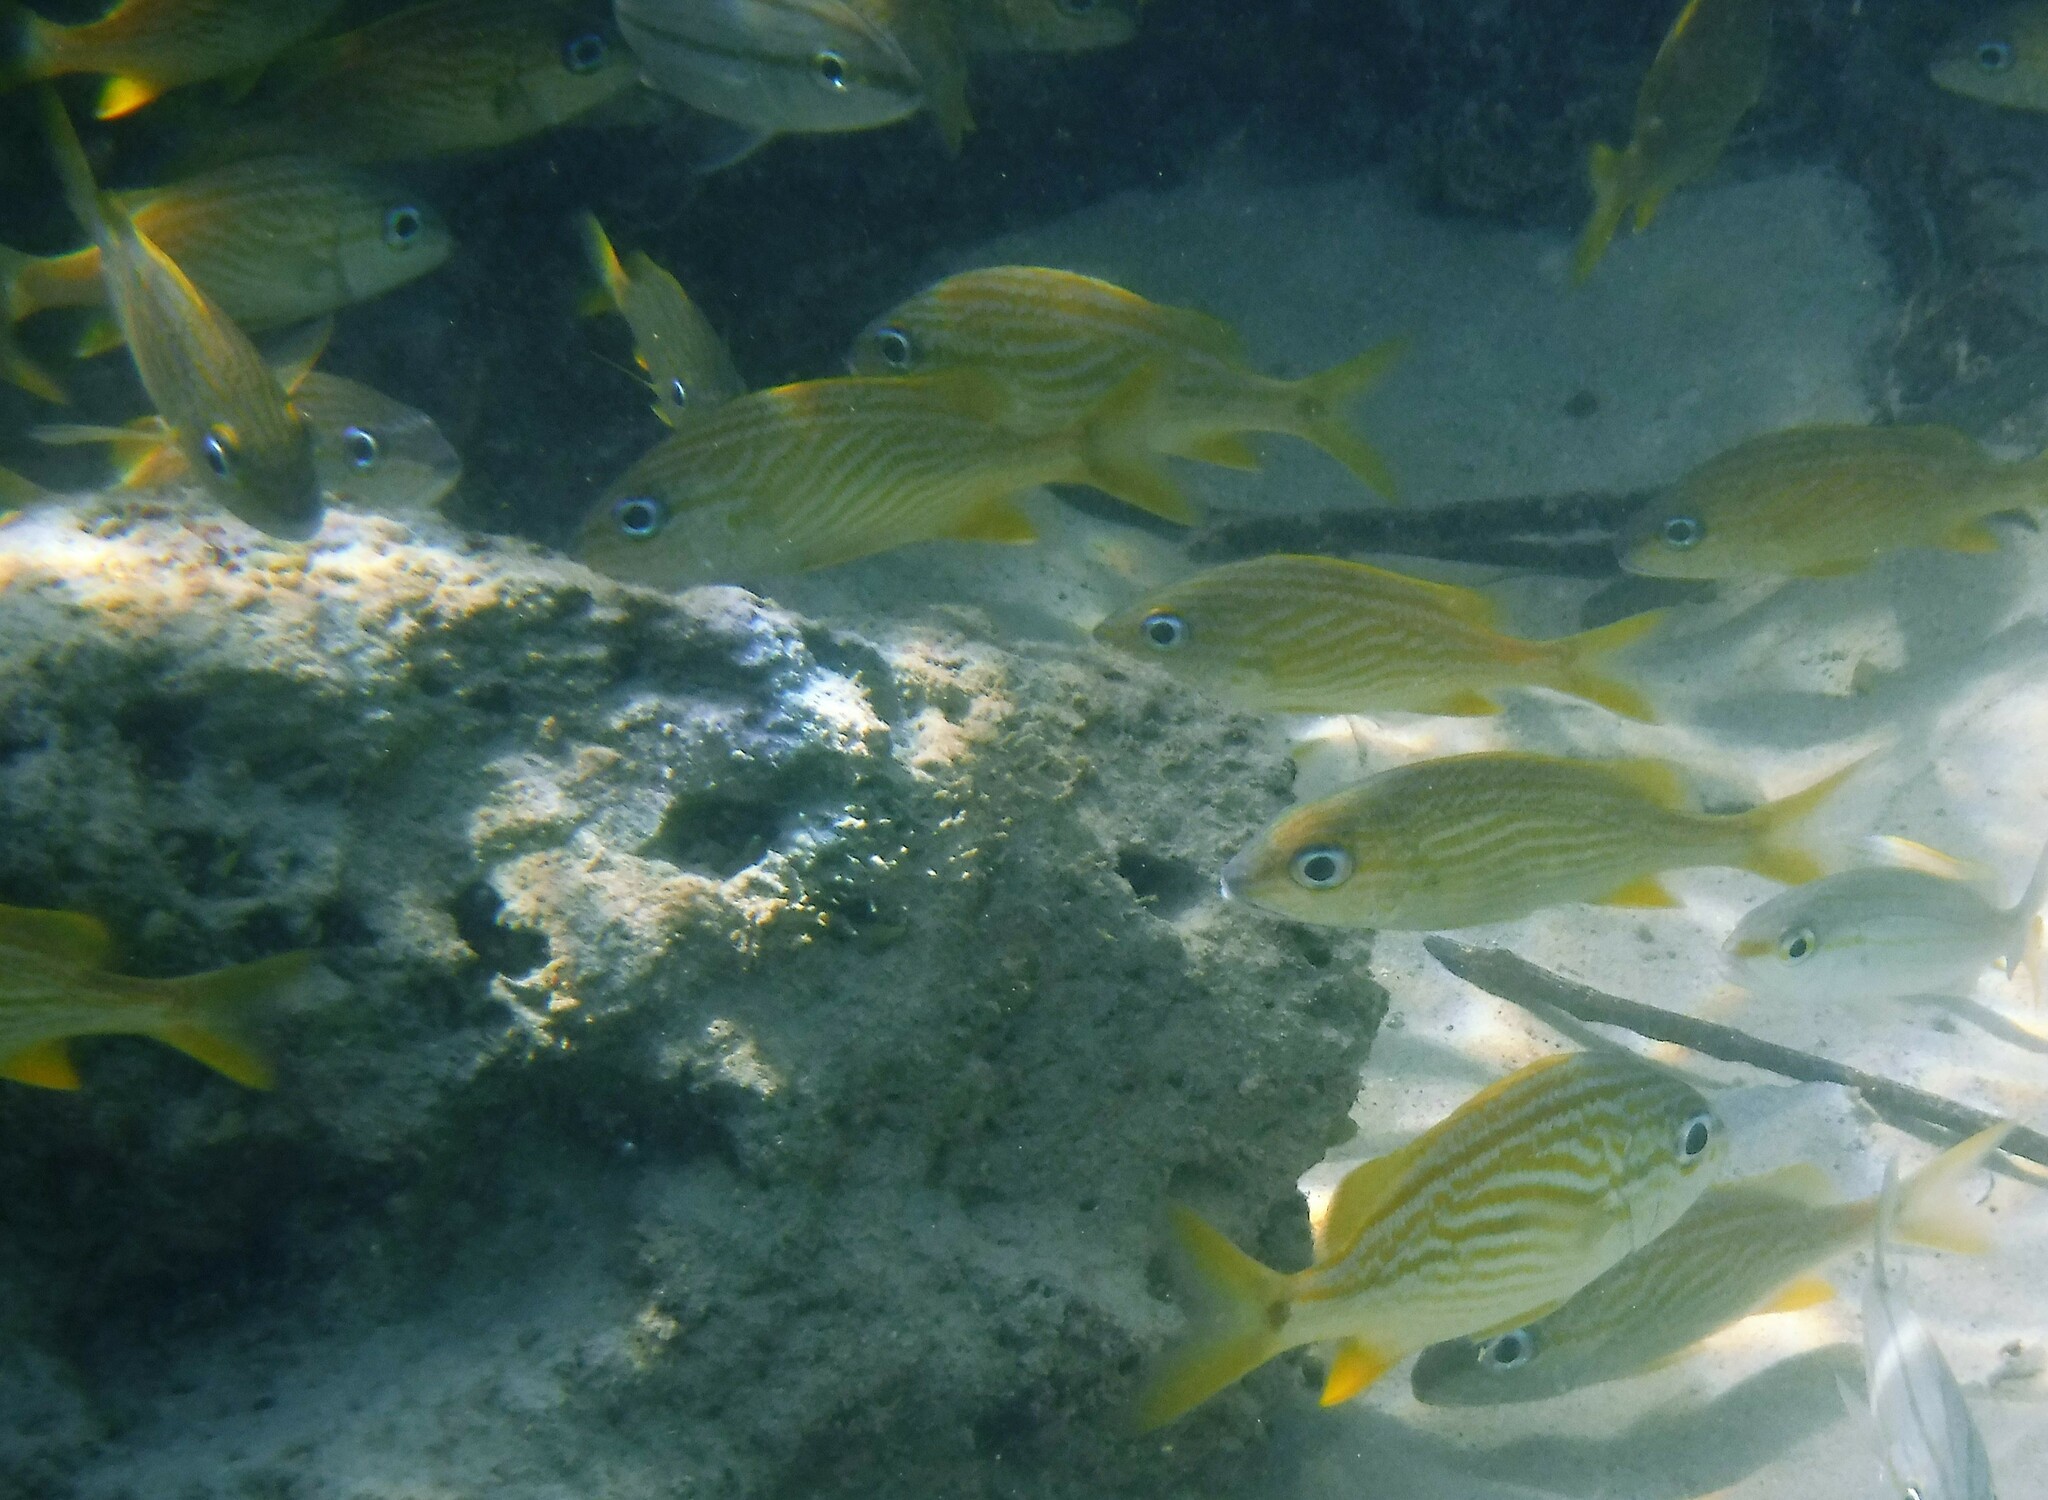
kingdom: Animalia
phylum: Chordata
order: Perciformes
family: Haemulidae
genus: Haemulon
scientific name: Haemulon flavolineatum
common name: French grunt
